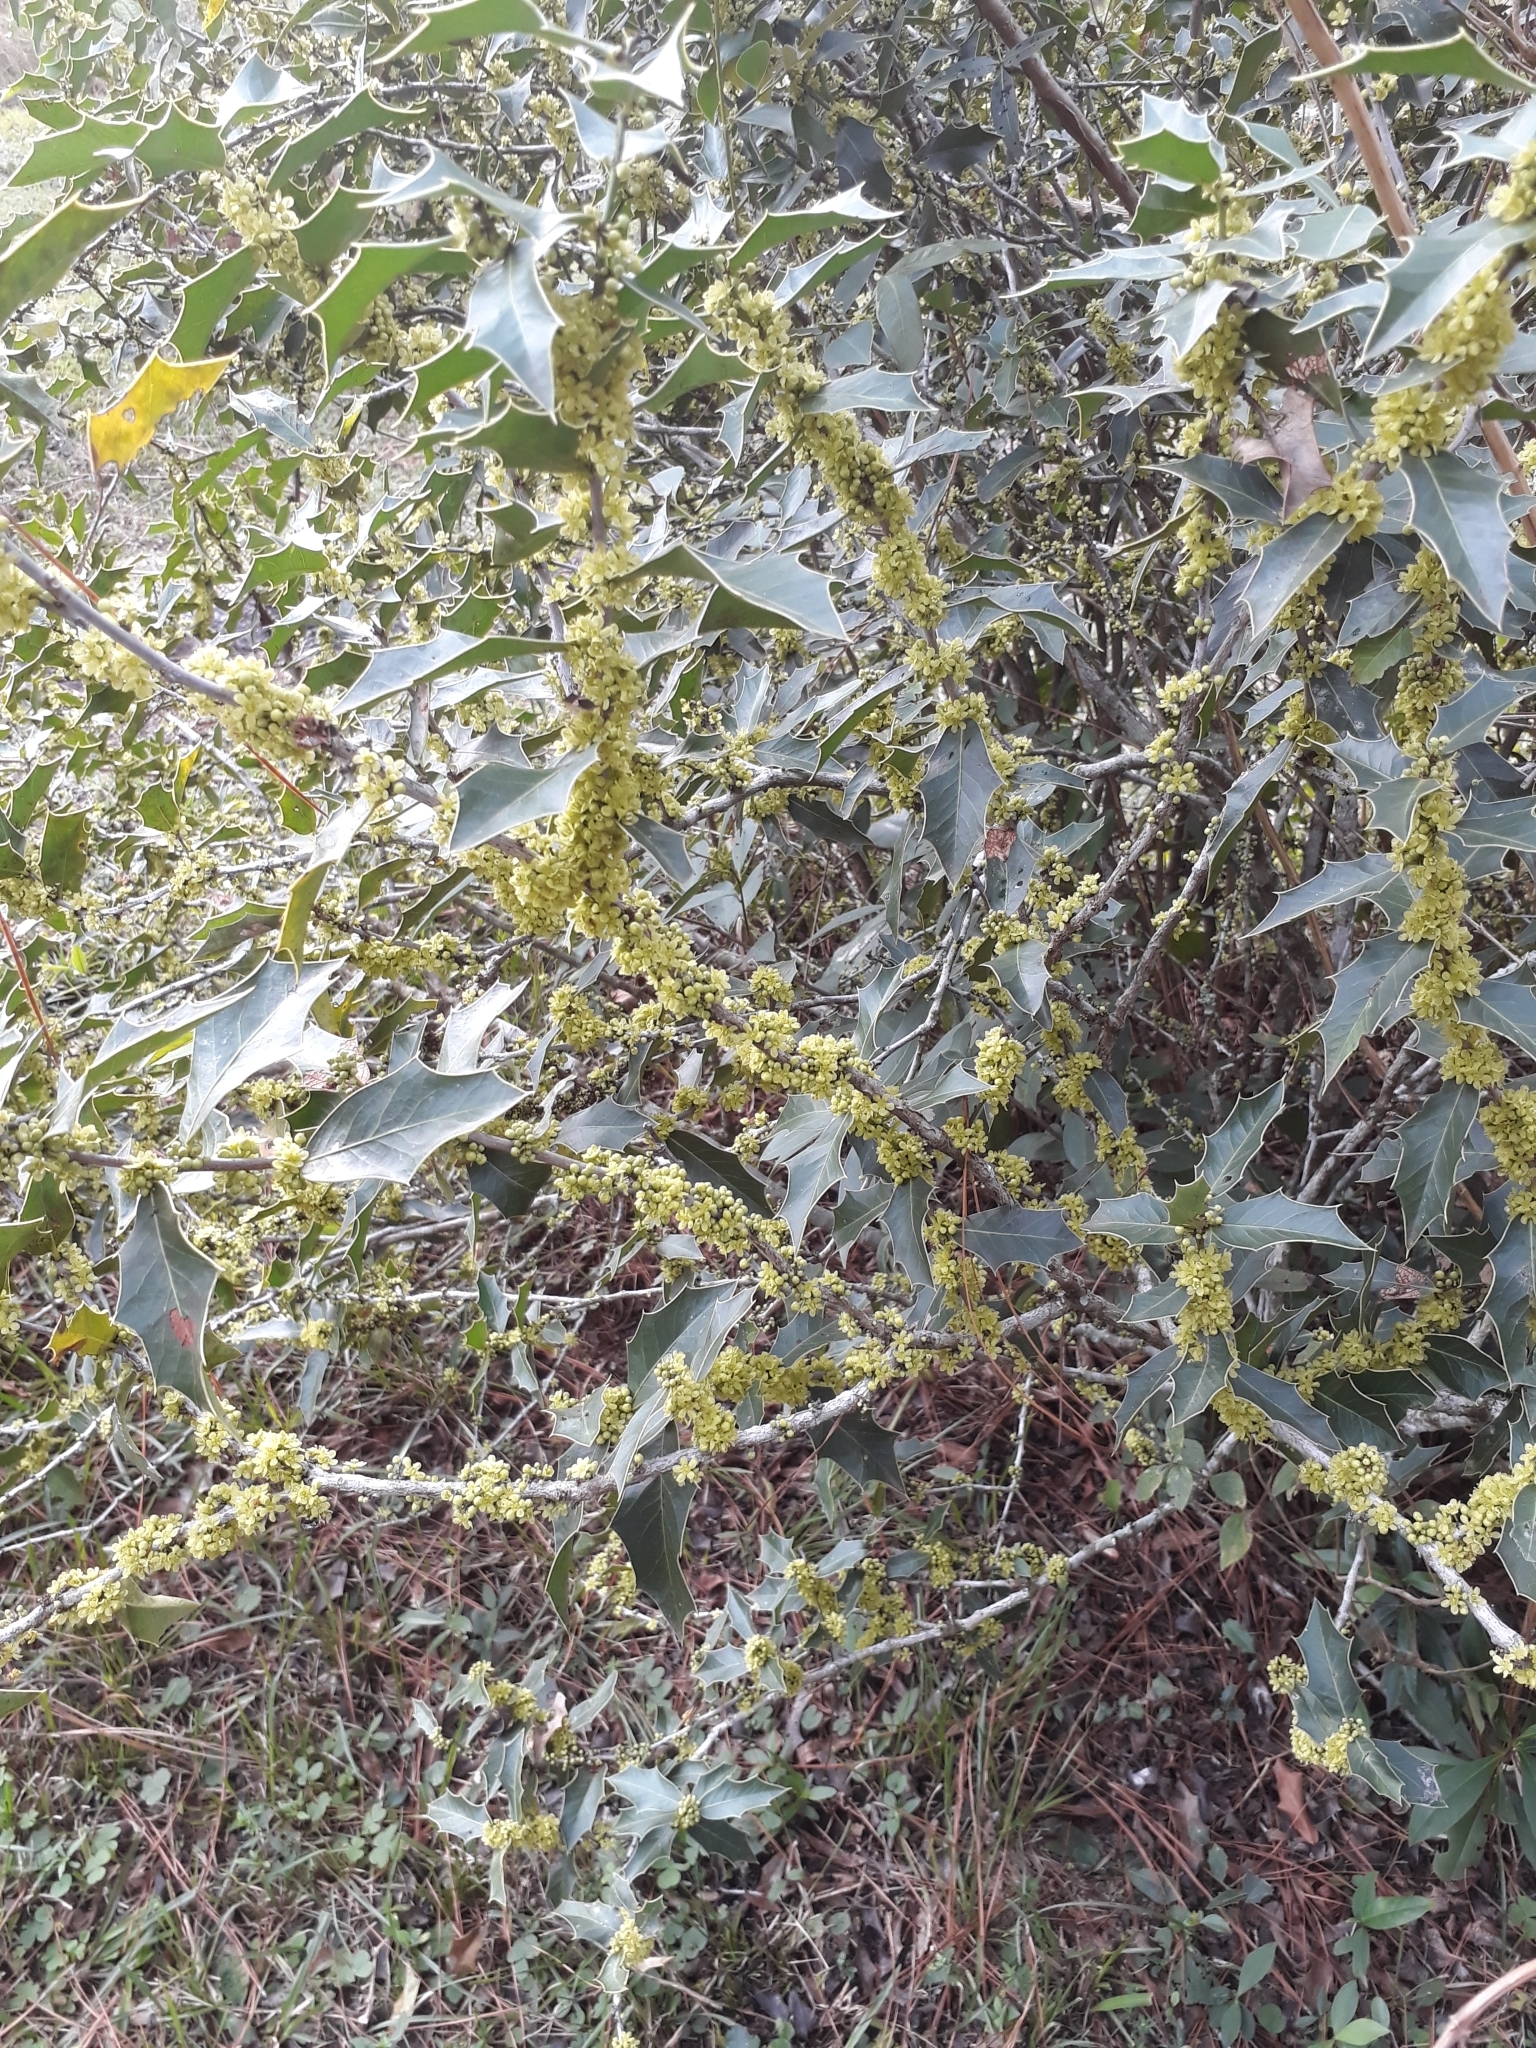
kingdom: Plantae
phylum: Tracheophyta
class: Magnoliopsida
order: Celastrales
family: Celastraceae
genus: Monteverdia
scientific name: Monteverdia
